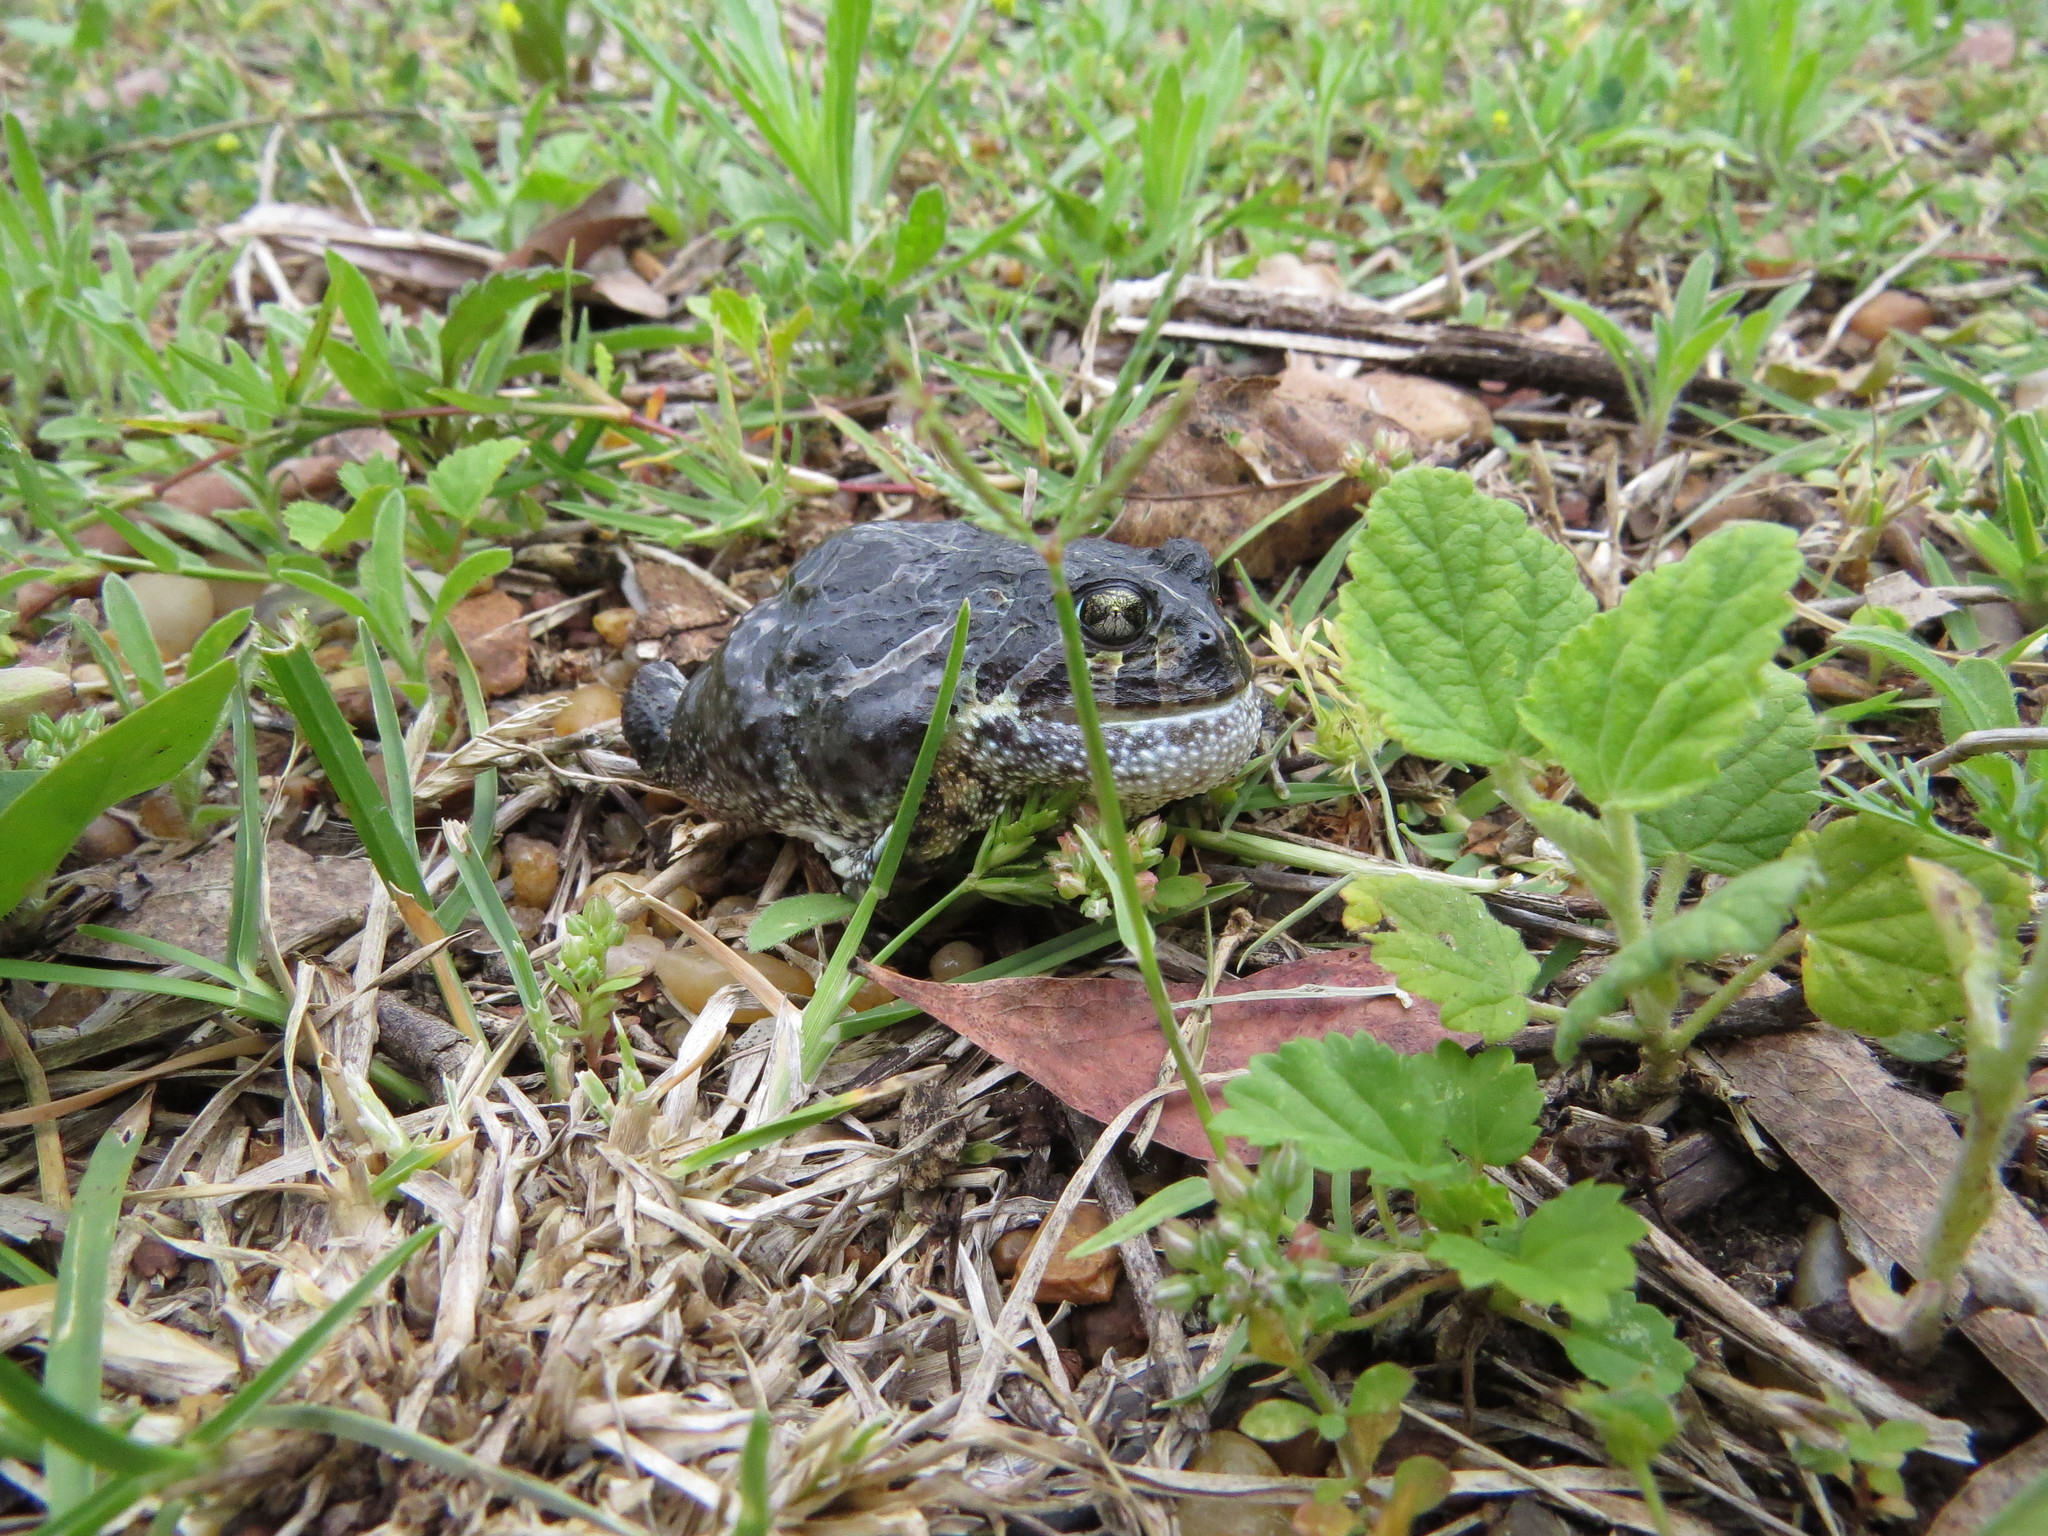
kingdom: Animalia
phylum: Chordata
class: Amphibia
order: Anura
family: Odontophrynidae
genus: Odontophrynus
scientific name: Odontophrynus
